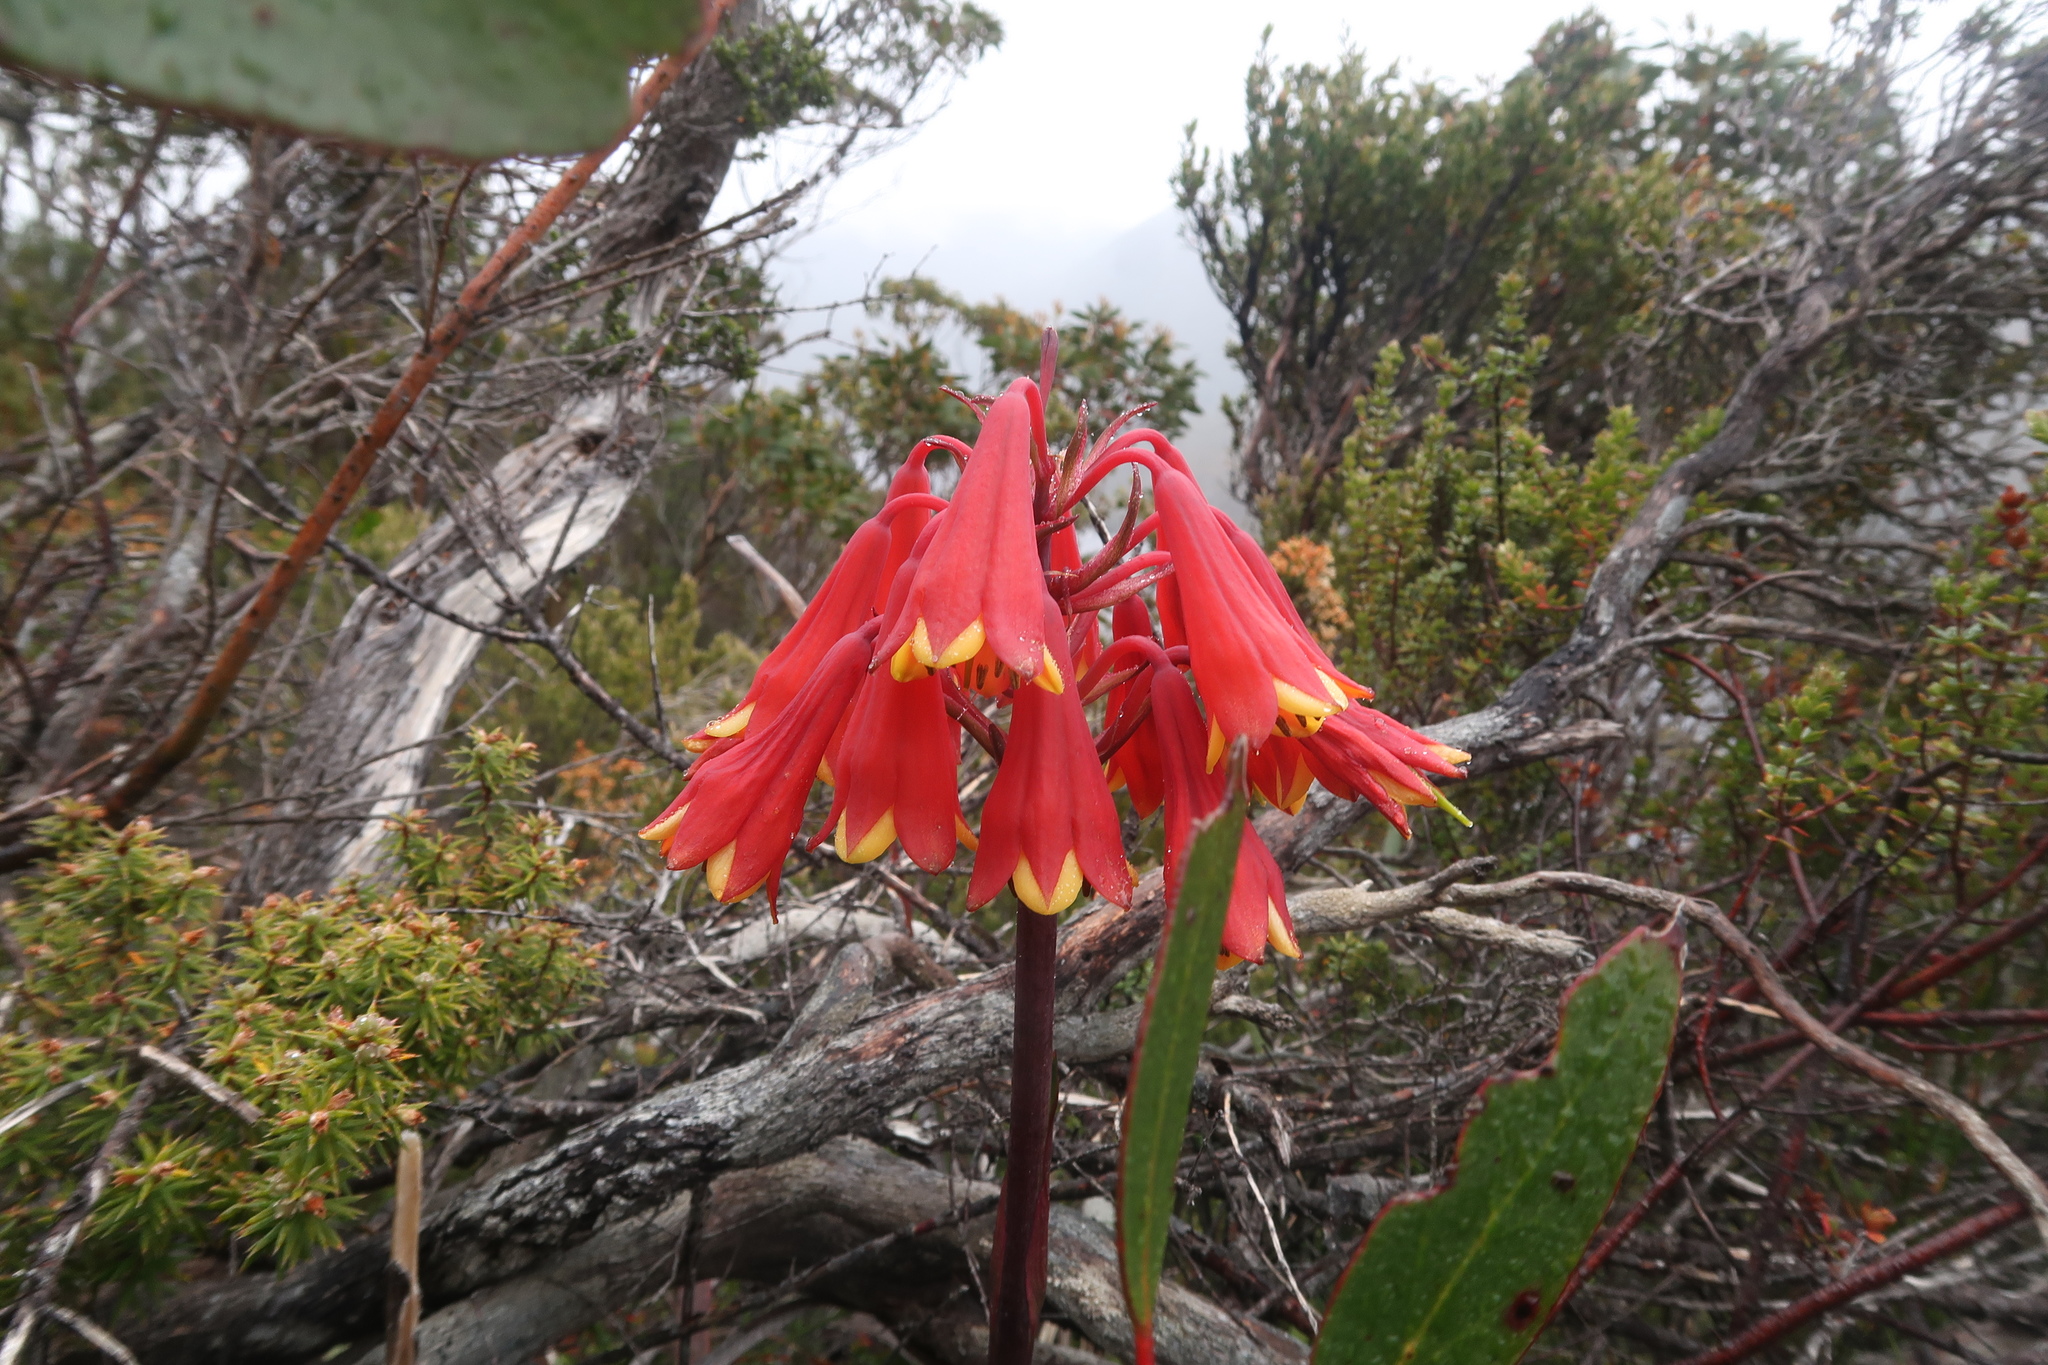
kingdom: Plantae
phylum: Tracheophyta
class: Liliopsida
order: Asparagales
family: Blandfordiaceae
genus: Blandfordia
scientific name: Blandfordia punicea
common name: Tasmanian christmas-bell
